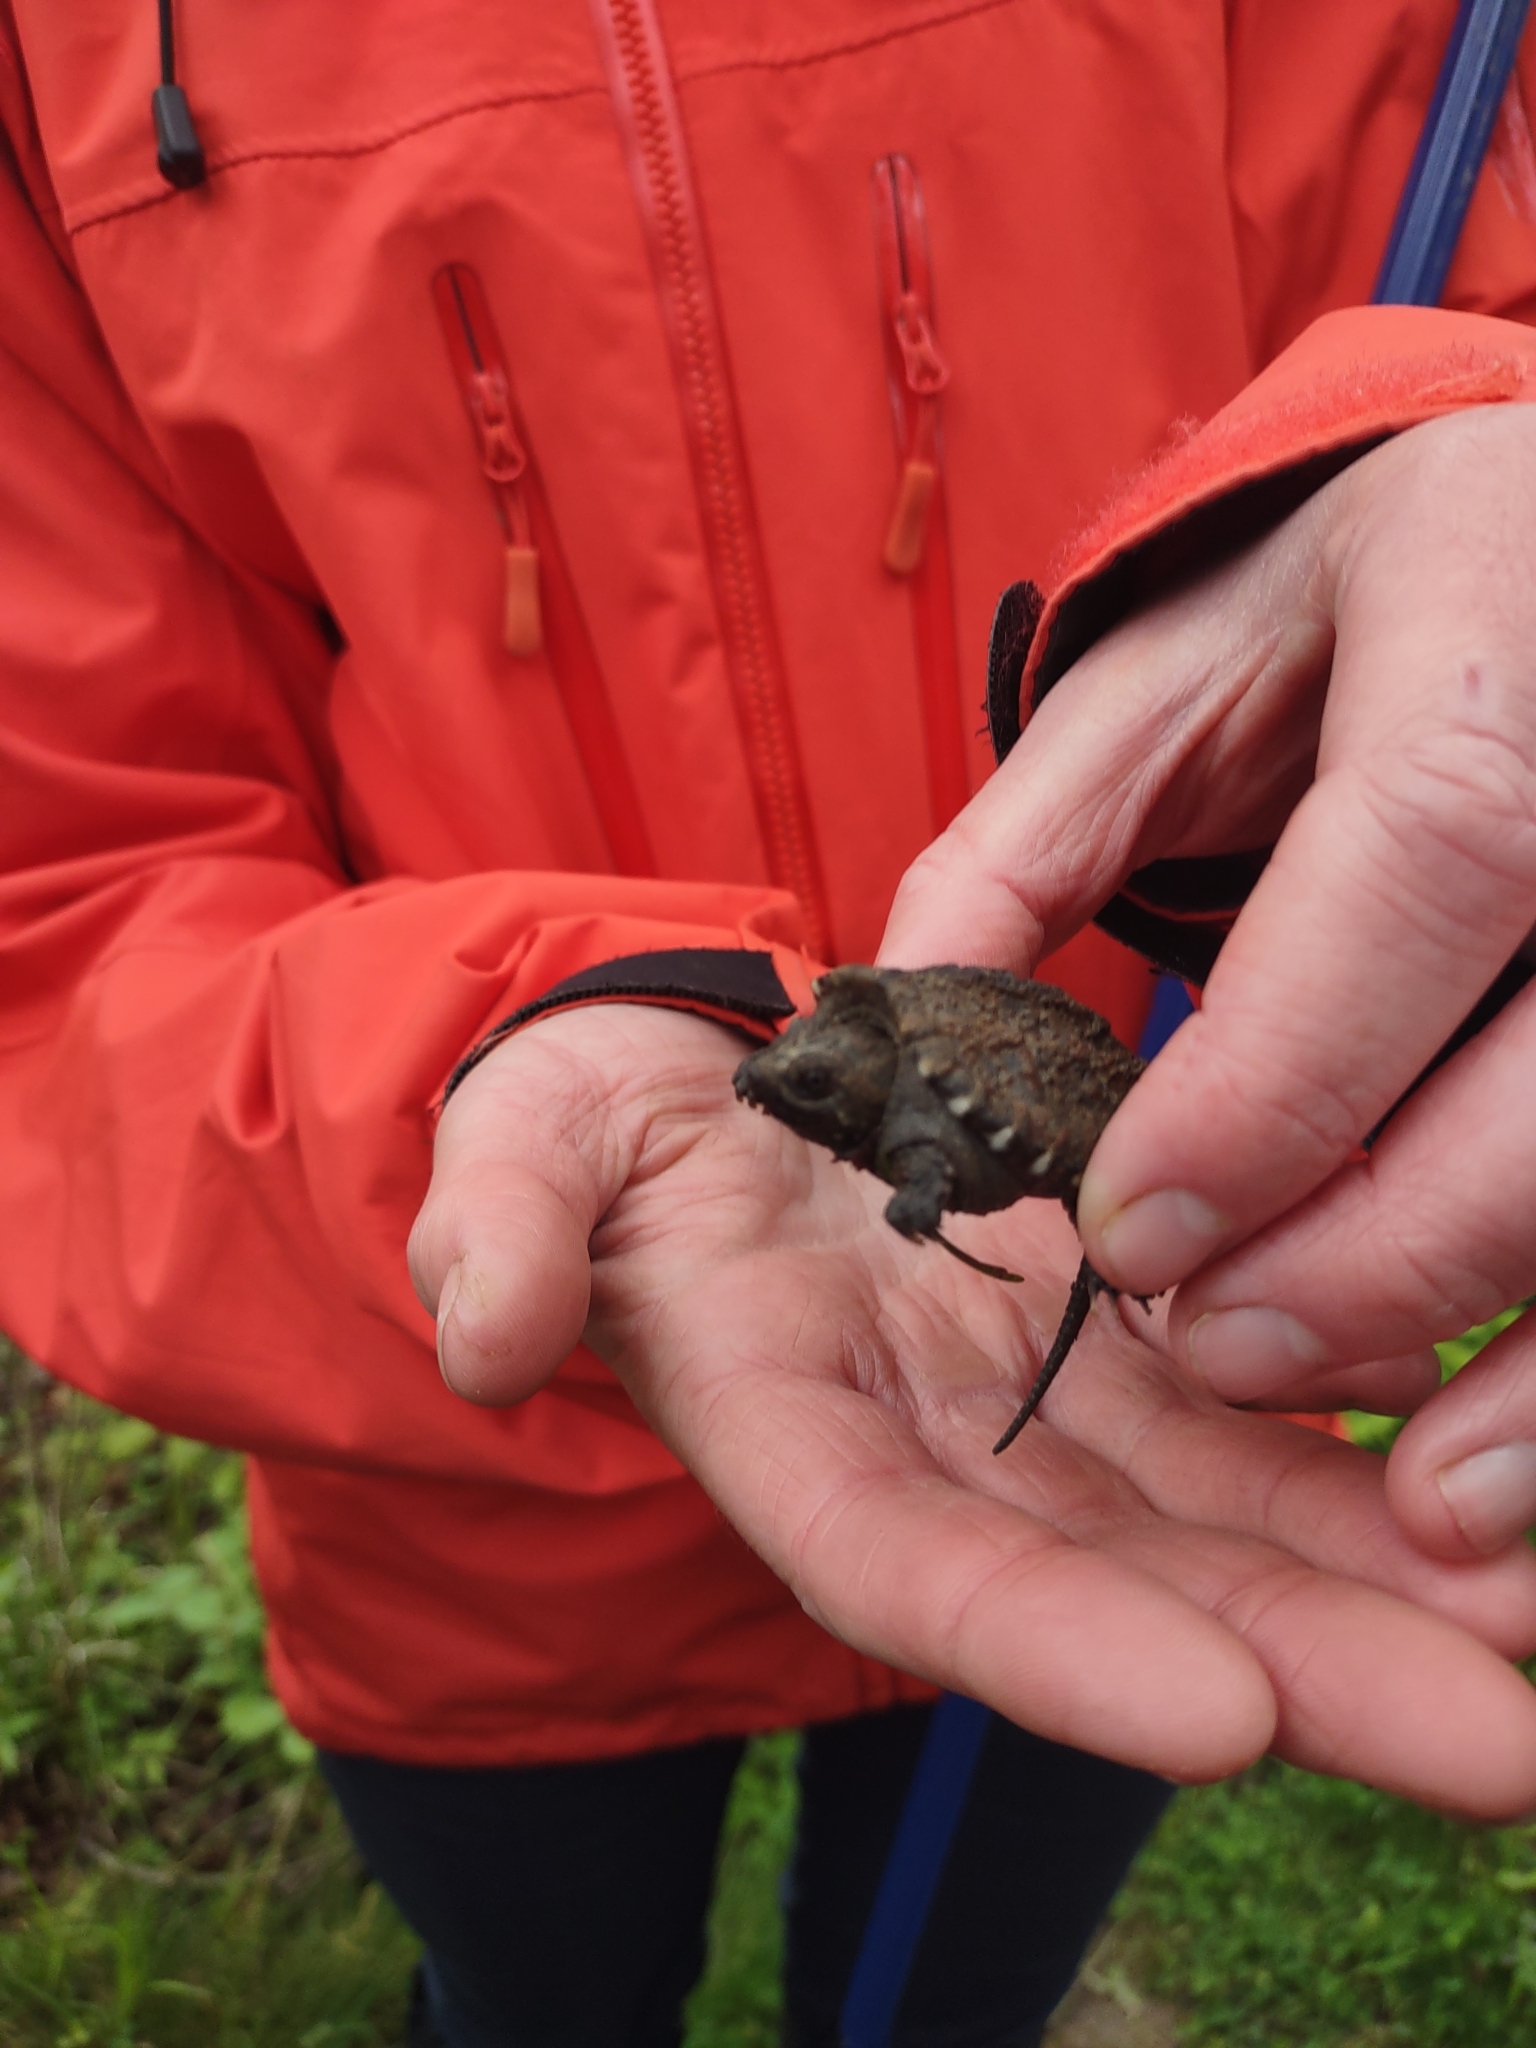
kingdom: Animalia
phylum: Chordata
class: Testudines
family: Chelydridae
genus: Chelydra
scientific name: Chelydra serpentina
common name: Common snapping turtle
